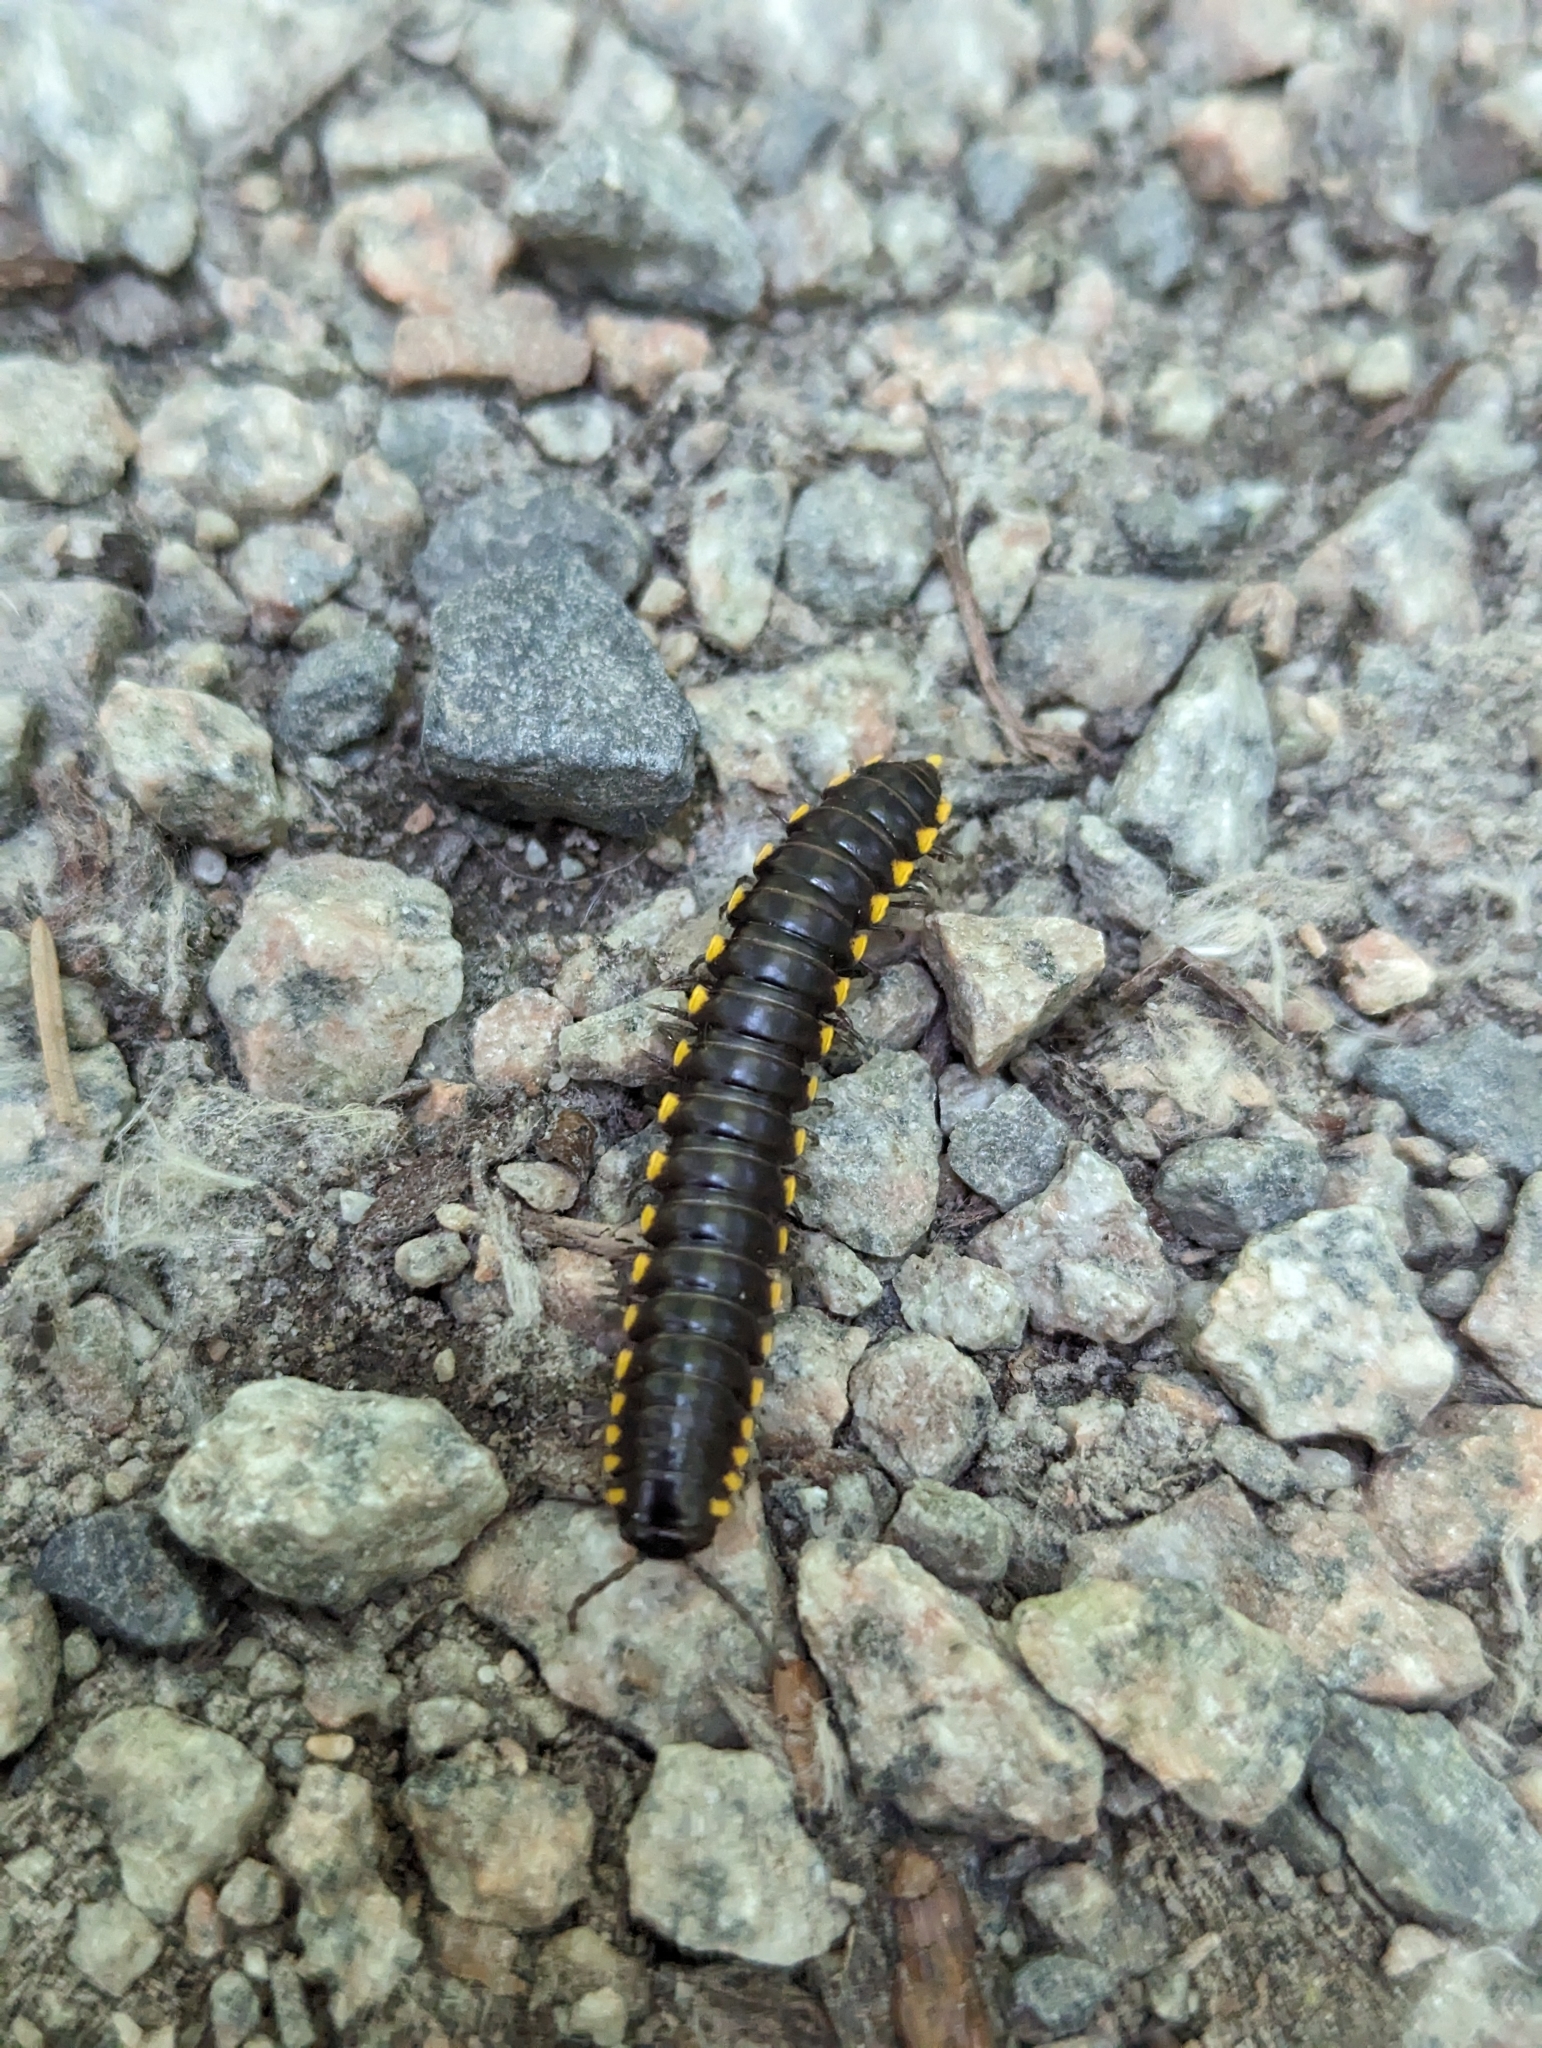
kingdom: Animalia
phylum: Arthropoda
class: Diplopoda
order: Polydesmida
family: Xystodesmidae
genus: Harpaphe
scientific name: Harpaphe haydeniana
